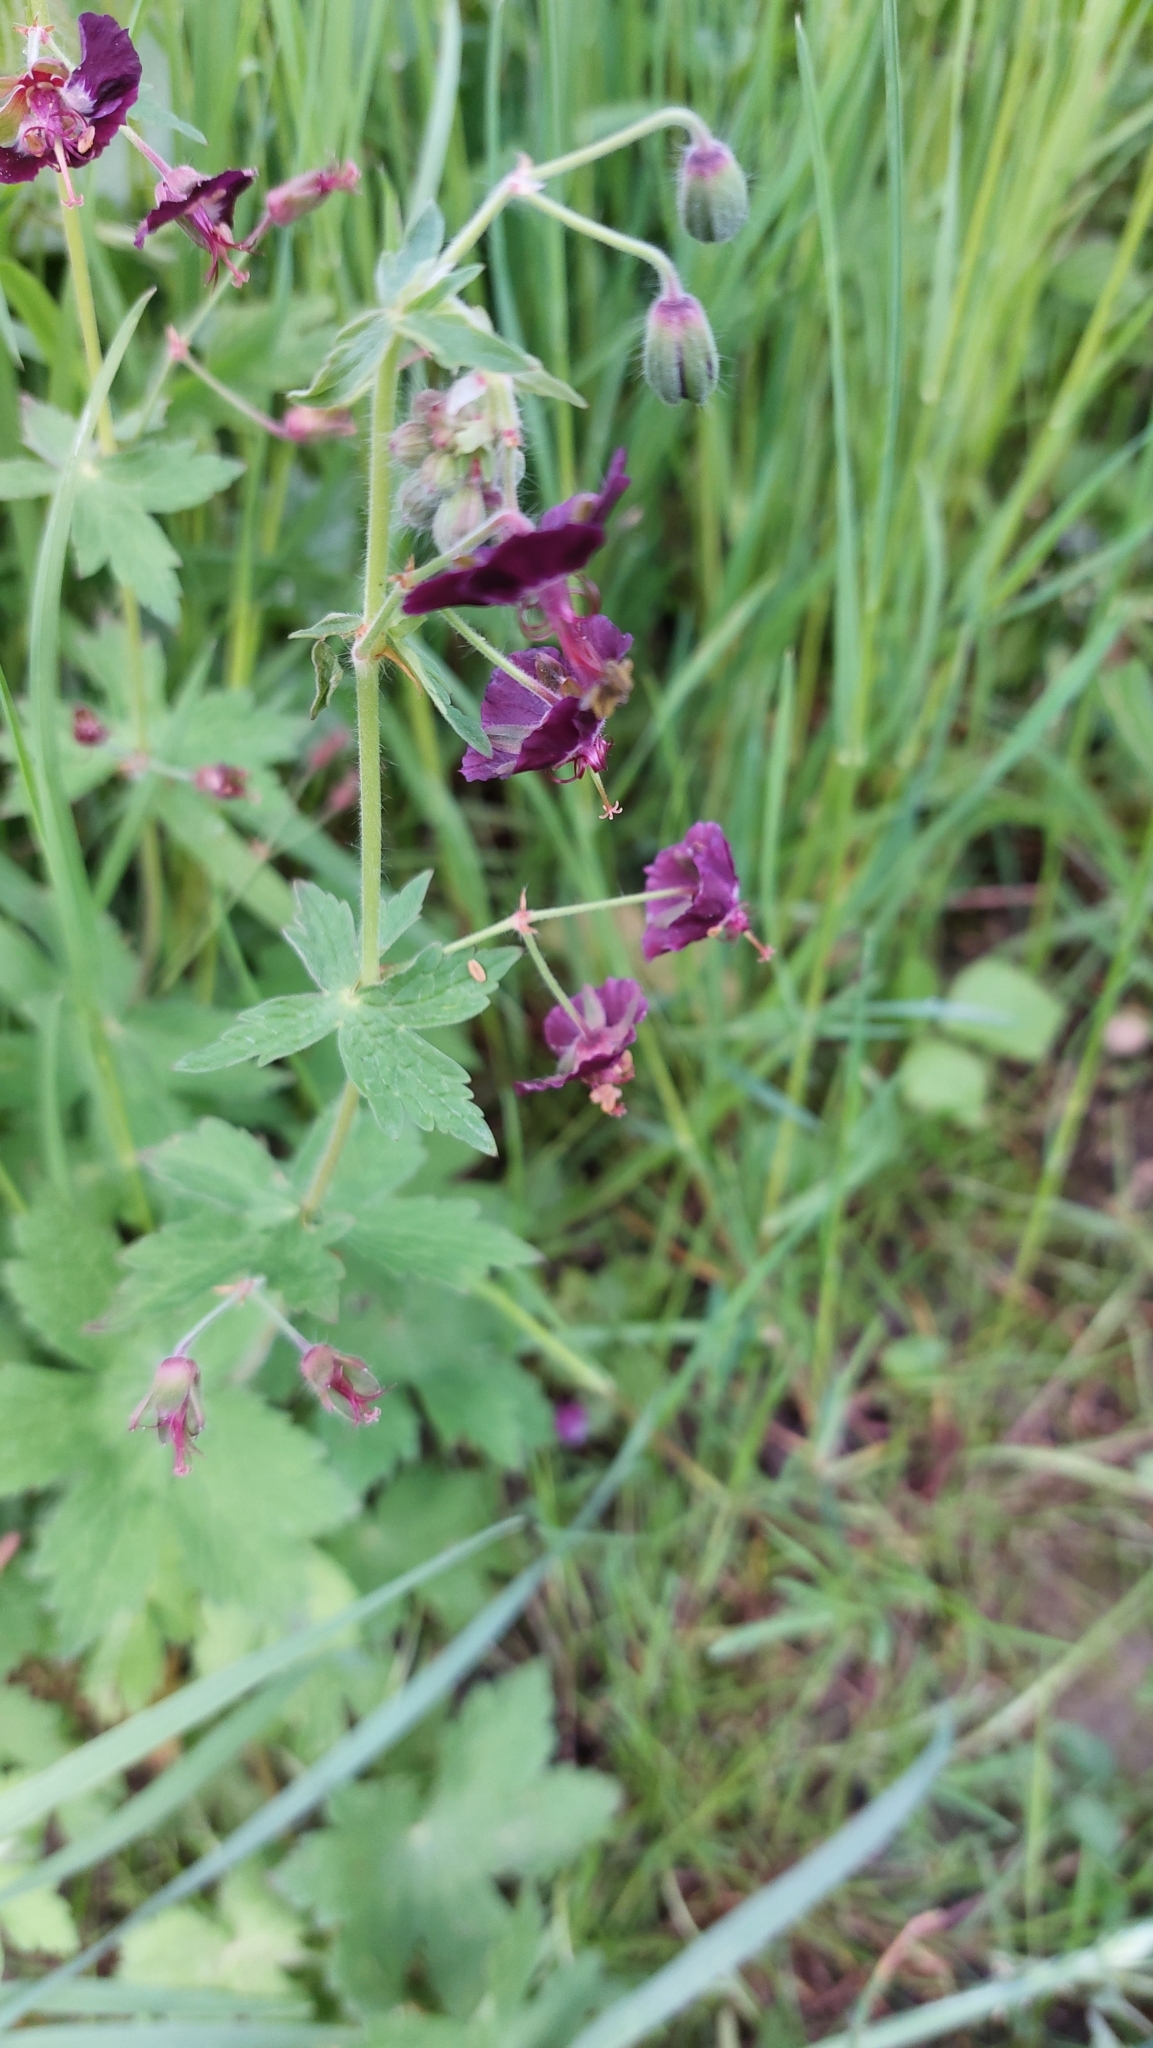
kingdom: Plantae
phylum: Tracheophyta
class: Magnoliopsida
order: Geraniales
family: Geraniaceae
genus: Geranium
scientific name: Geranium phaeum
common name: Dusky crane's-bill
